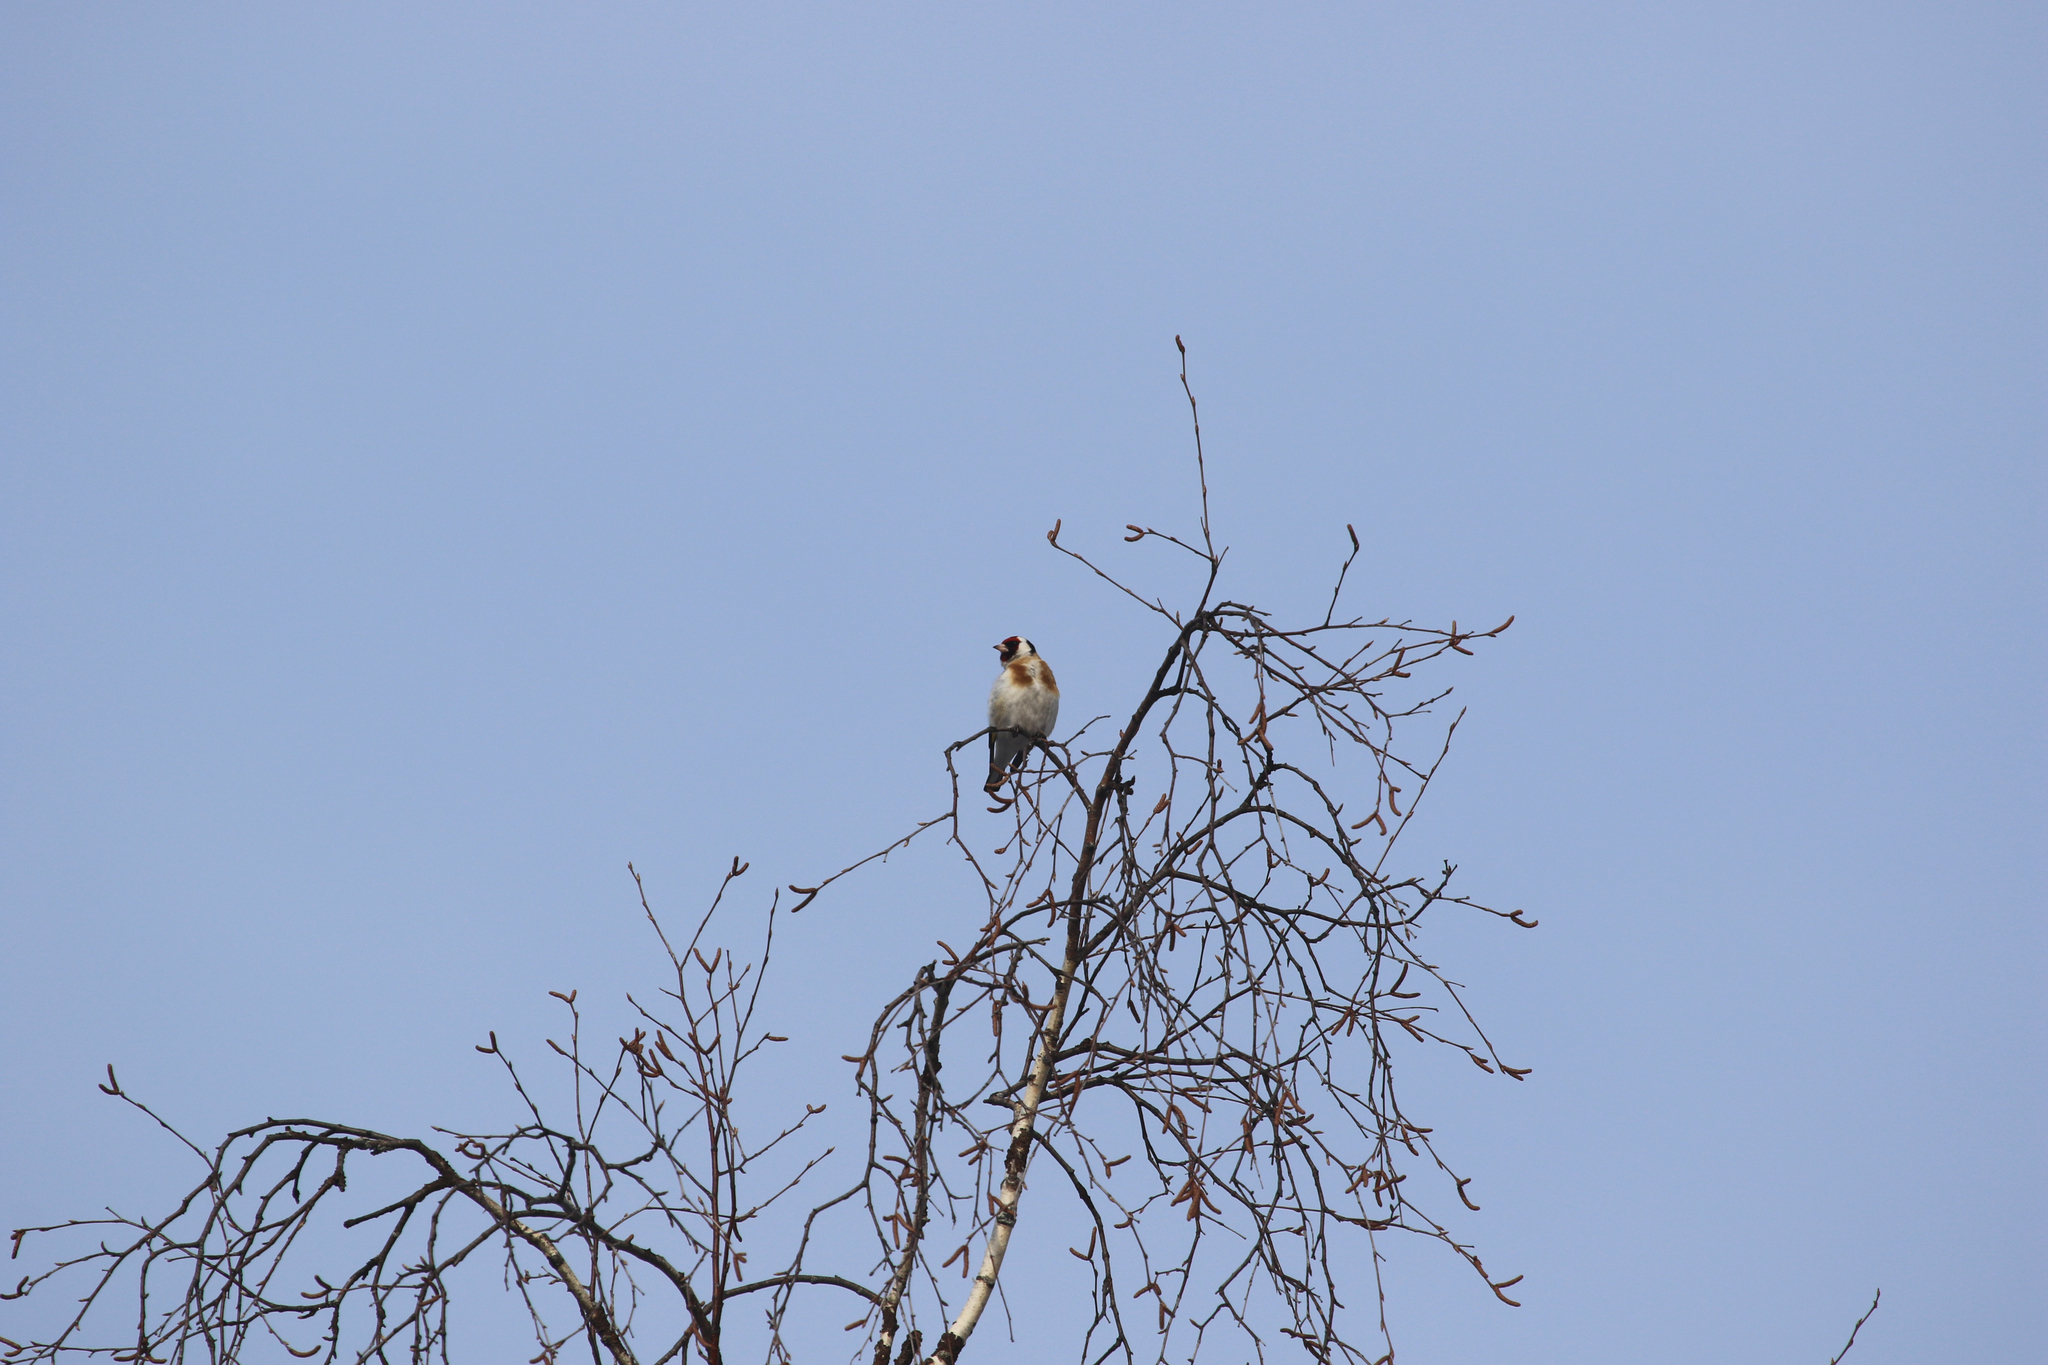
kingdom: Animalia
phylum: Chordata
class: Aves
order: Passeriformes
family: Fringillidae
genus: Carduelis
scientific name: Carduelis carduelis
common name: European goldfinch
